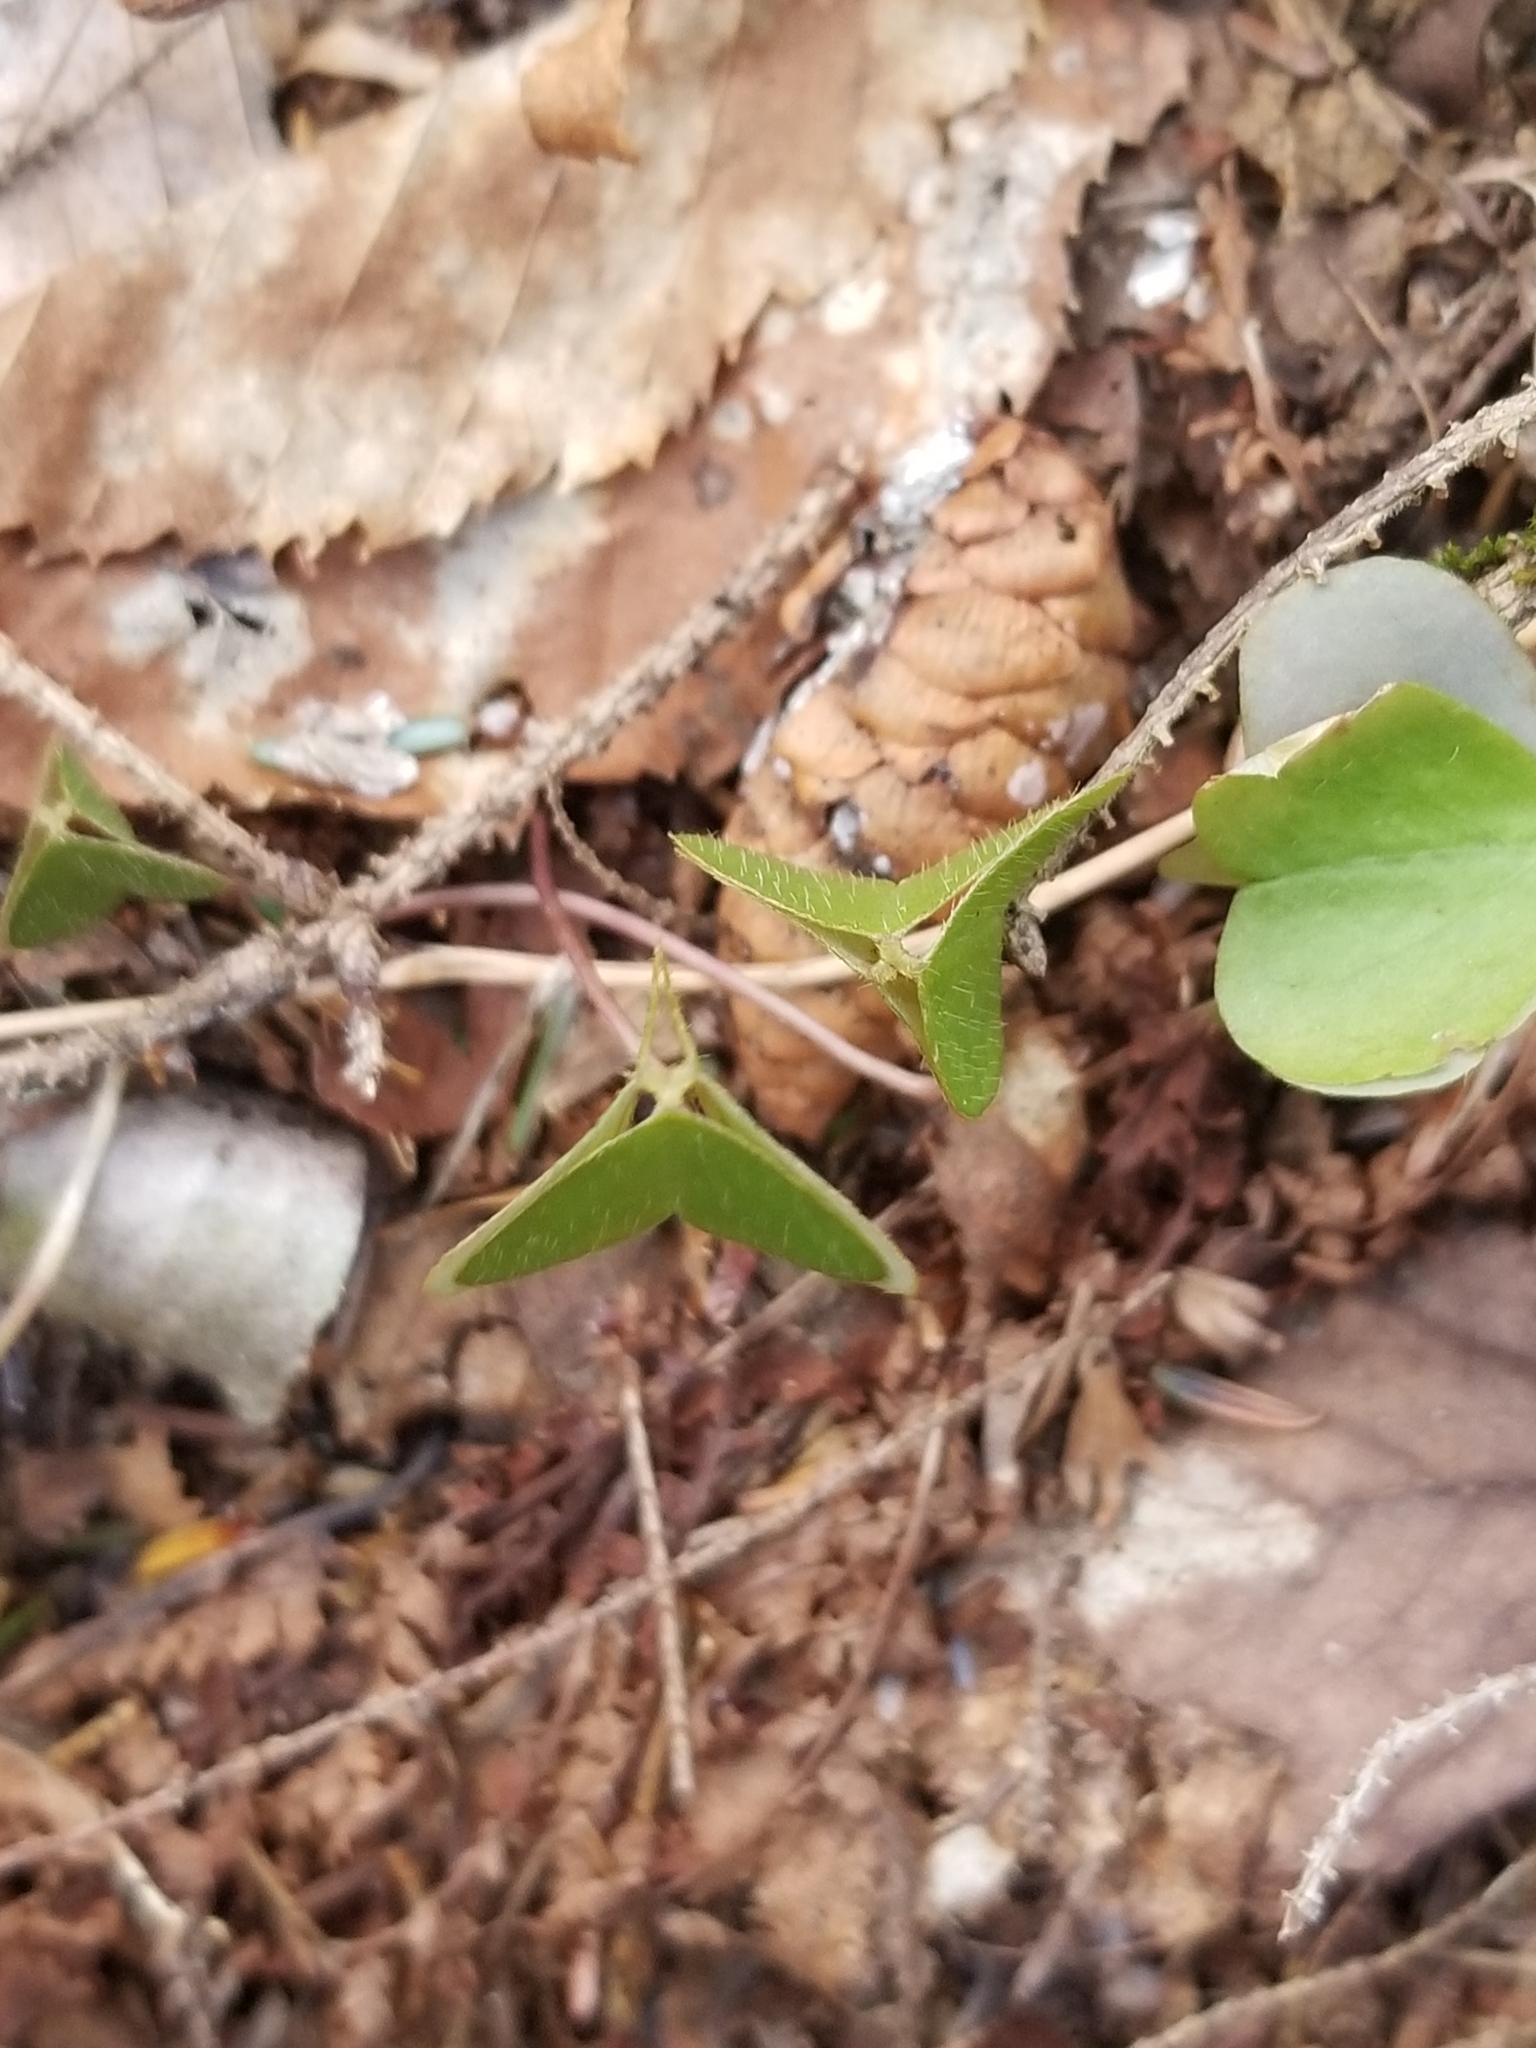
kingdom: Plantae
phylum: Tracheophyta
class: Magnoliopsida
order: Oxalidales
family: Oxalidaceae
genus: Oxalis
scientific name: Oxalis montana
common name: American wood-sorrel
